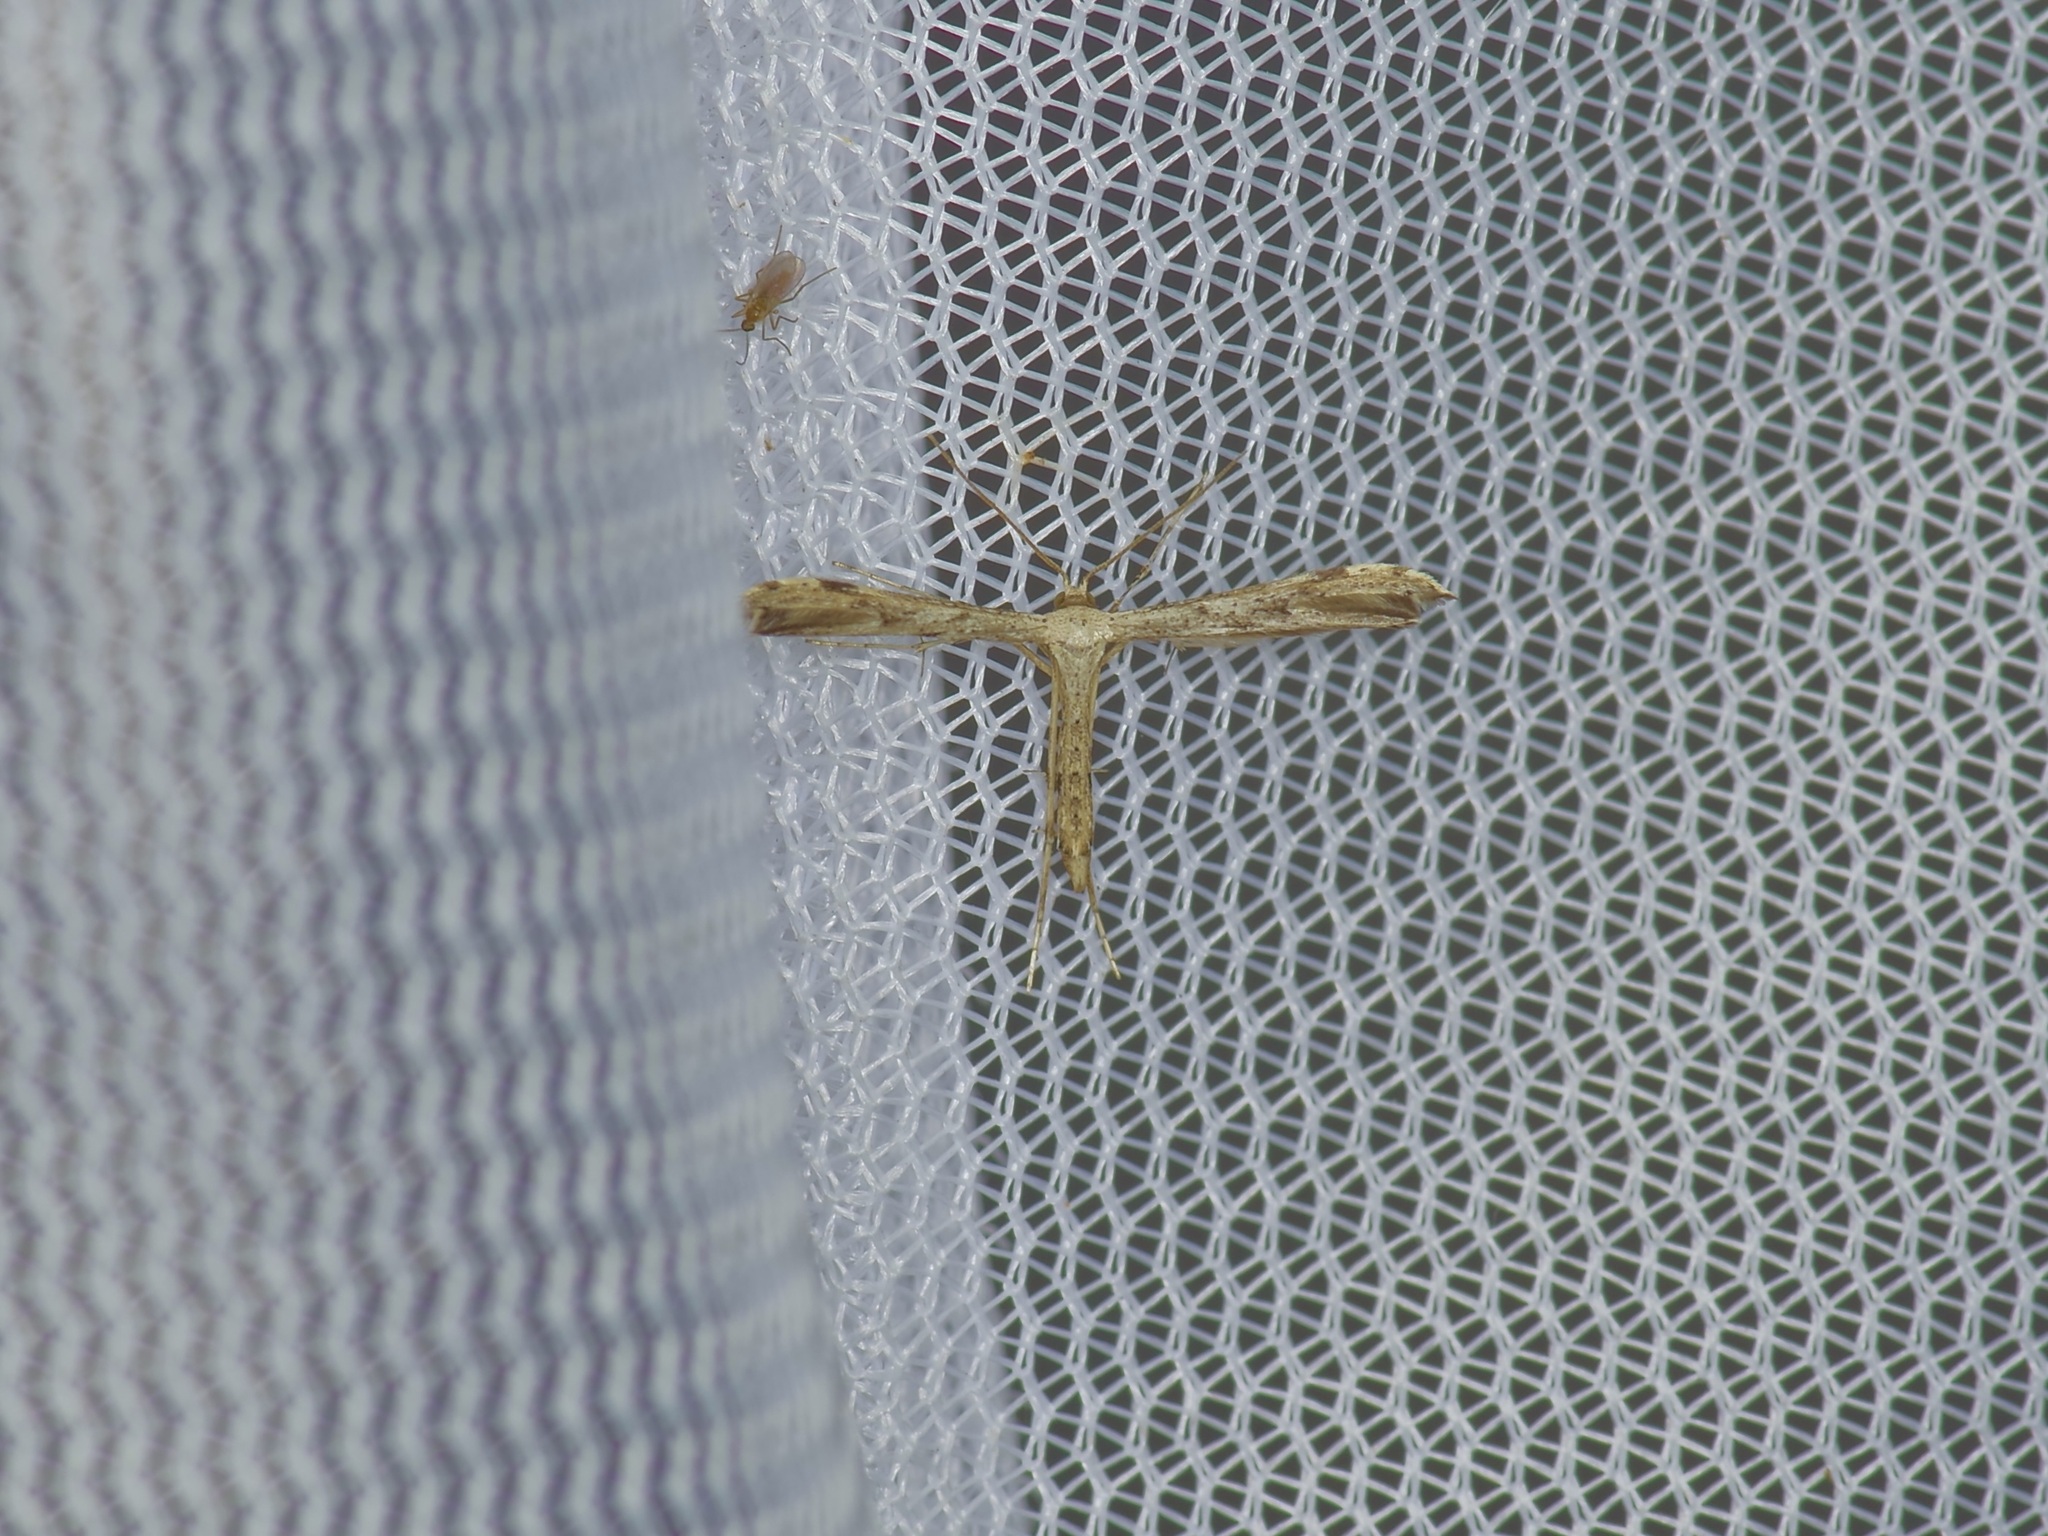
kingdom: Animalia
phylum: Arthropoda
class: Insecta
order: Lepidoptera
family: Pterophoridae
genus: Adaina
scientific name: Adaina ambrosiae
